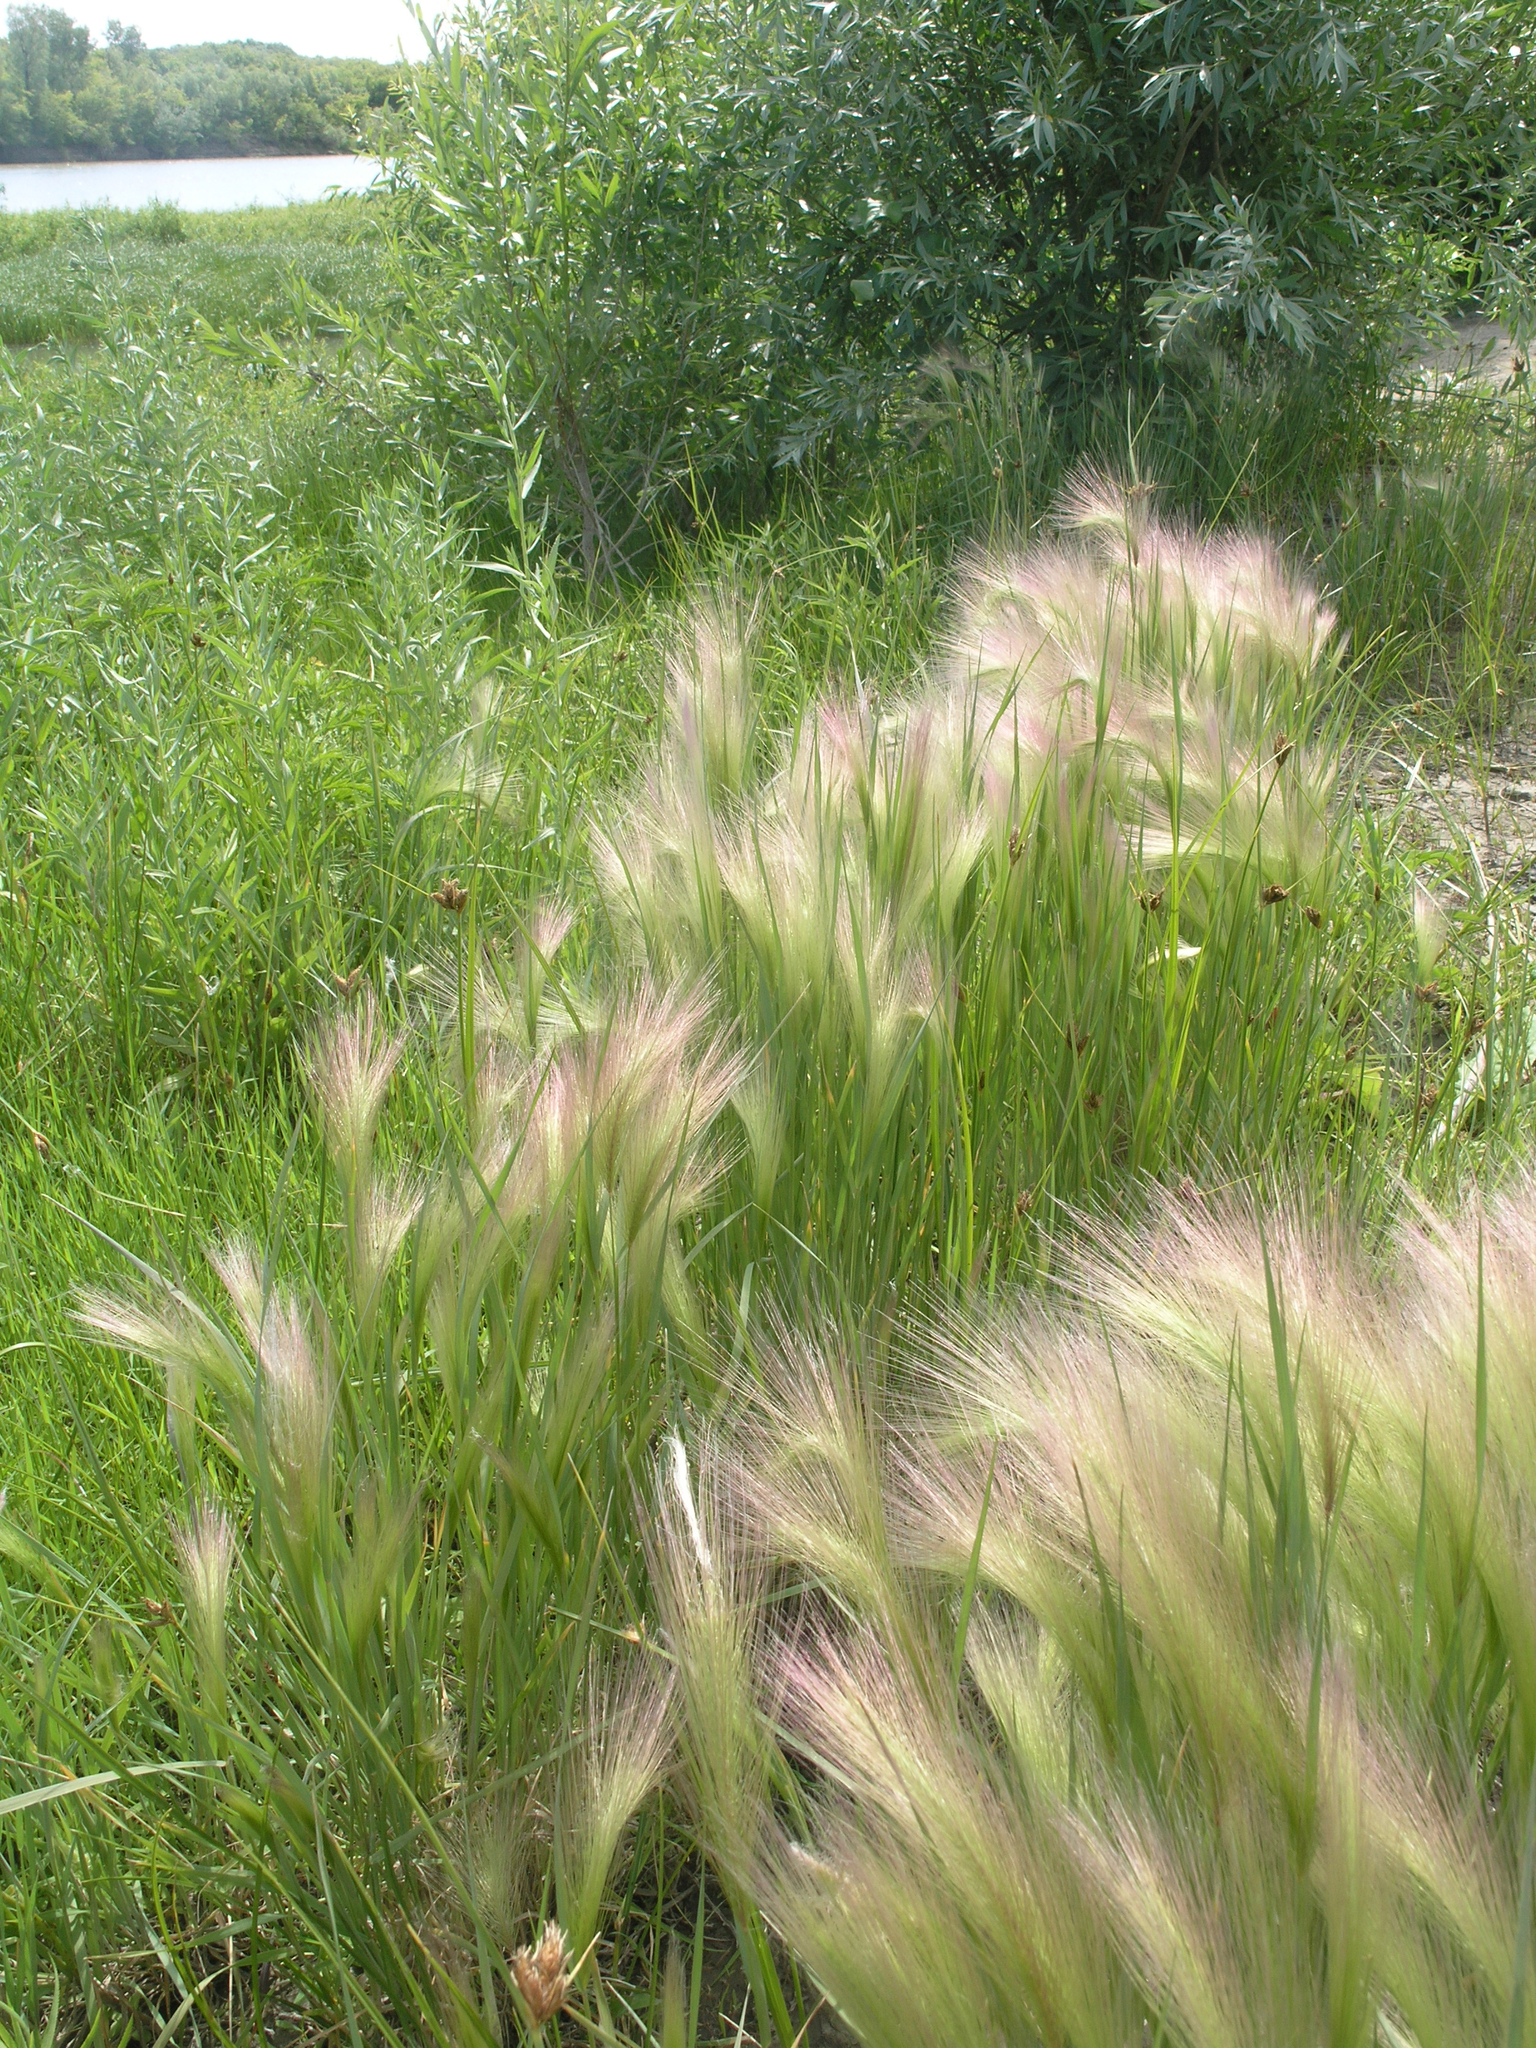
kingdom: Plantae
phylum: Tracheophyta
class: Liliopsida
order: Poales
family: Poaceae
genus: Hordeum
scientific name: Hordeum jubatum
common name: Foxtail barley
